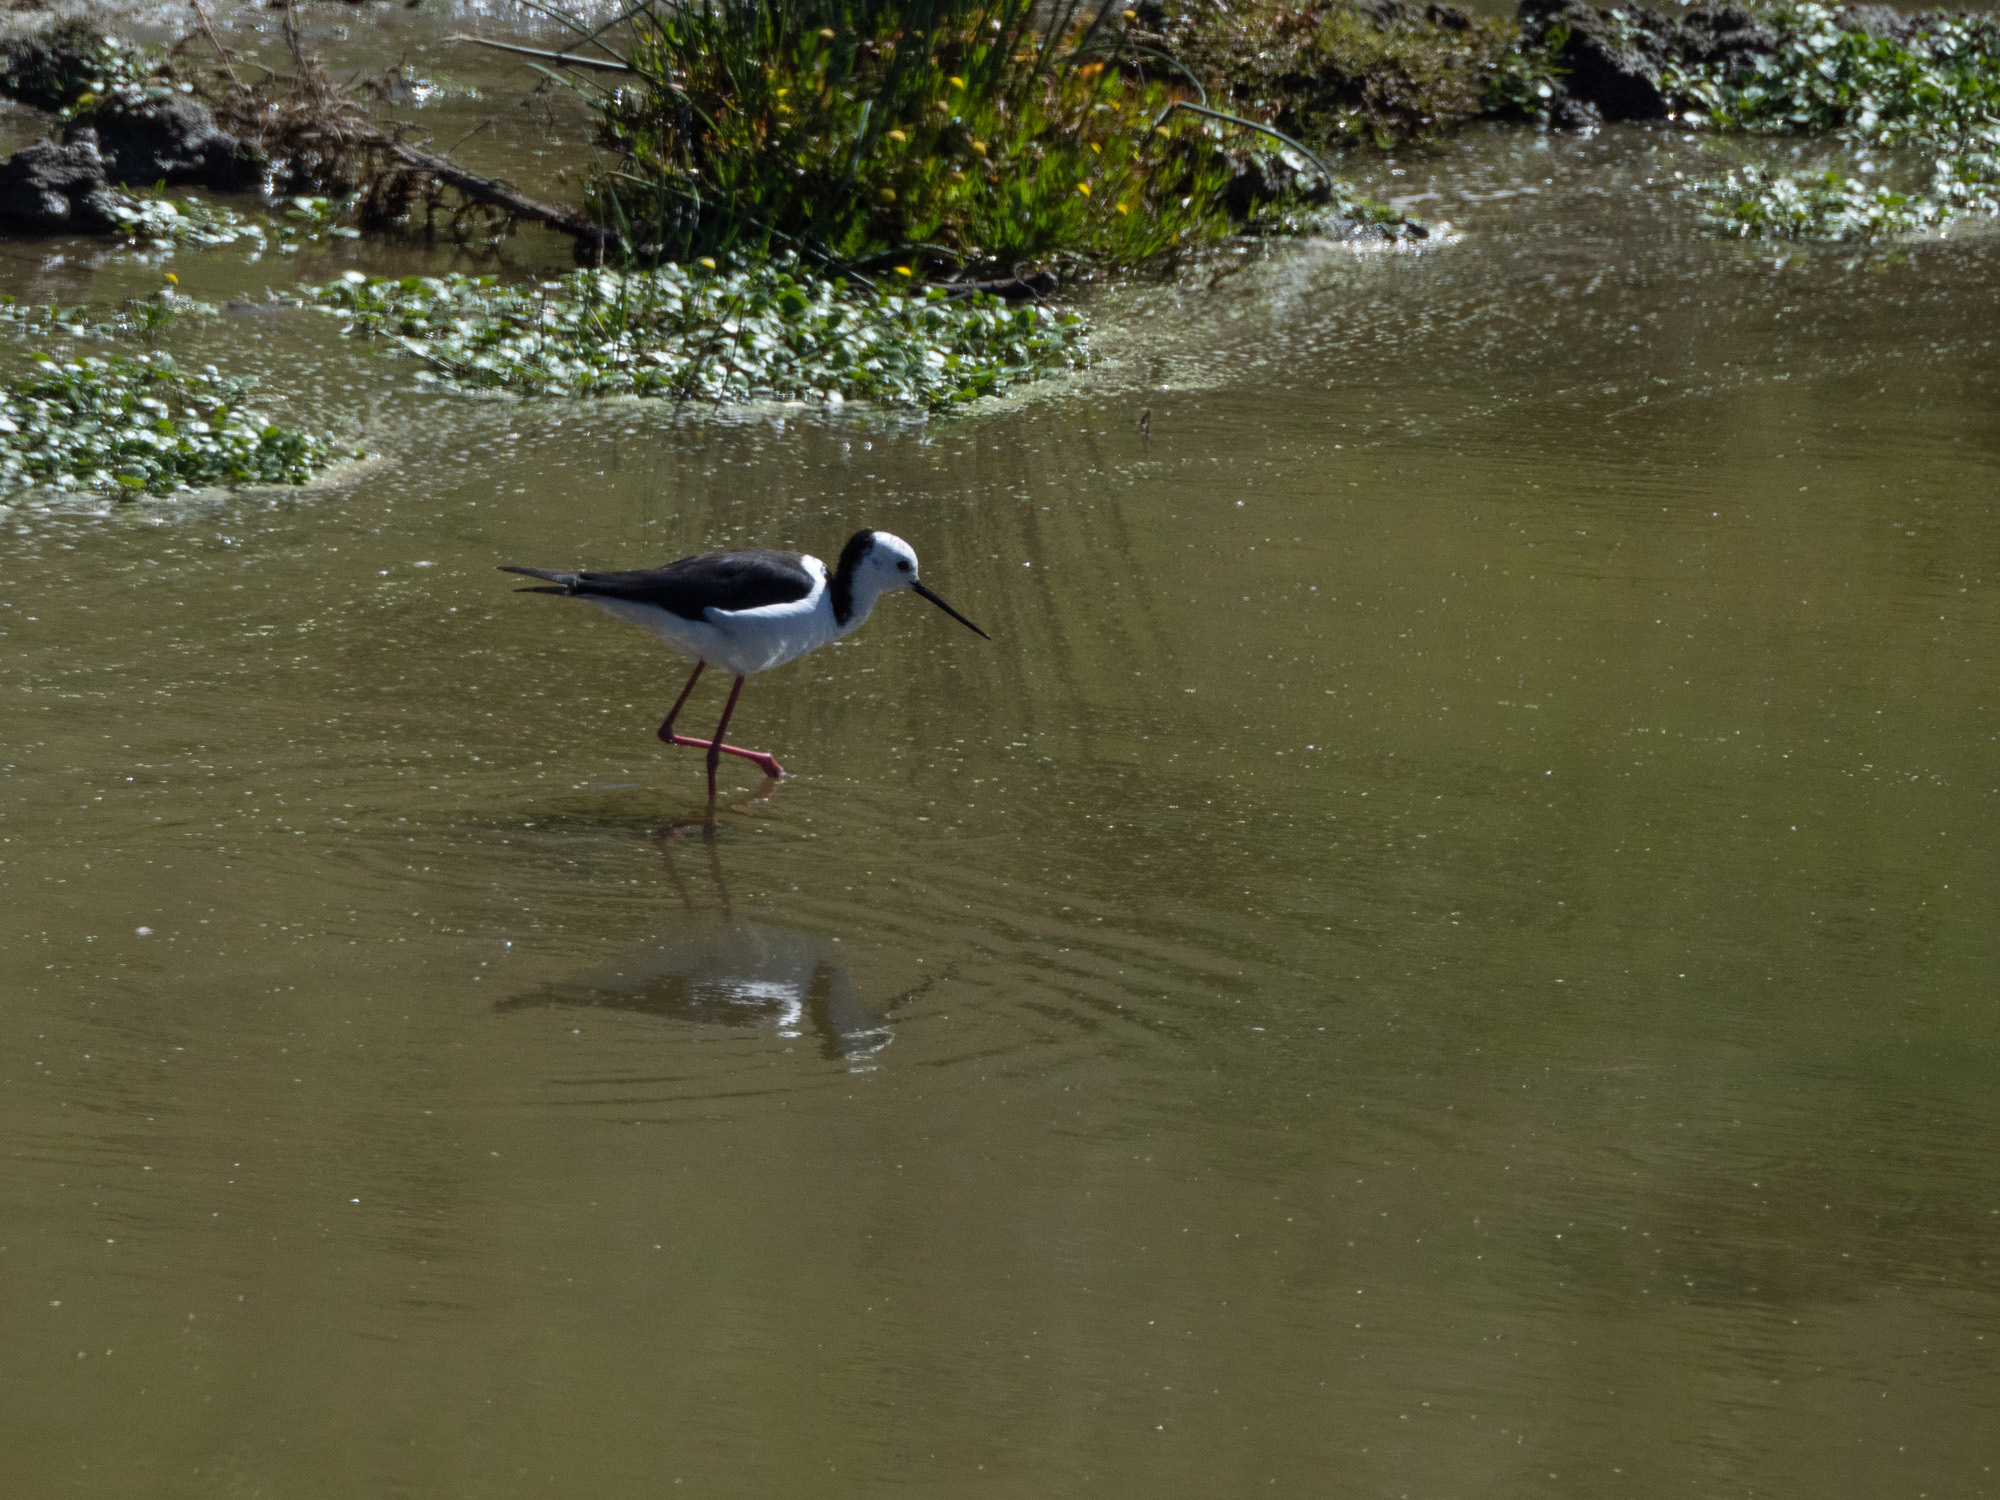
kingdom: Animalia
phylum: Chordata
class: Aves
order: Charadriiformes
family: Recurvirostridae
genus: Himantopus
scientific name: Himantopus leucocephalus
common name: White-headed stilt
